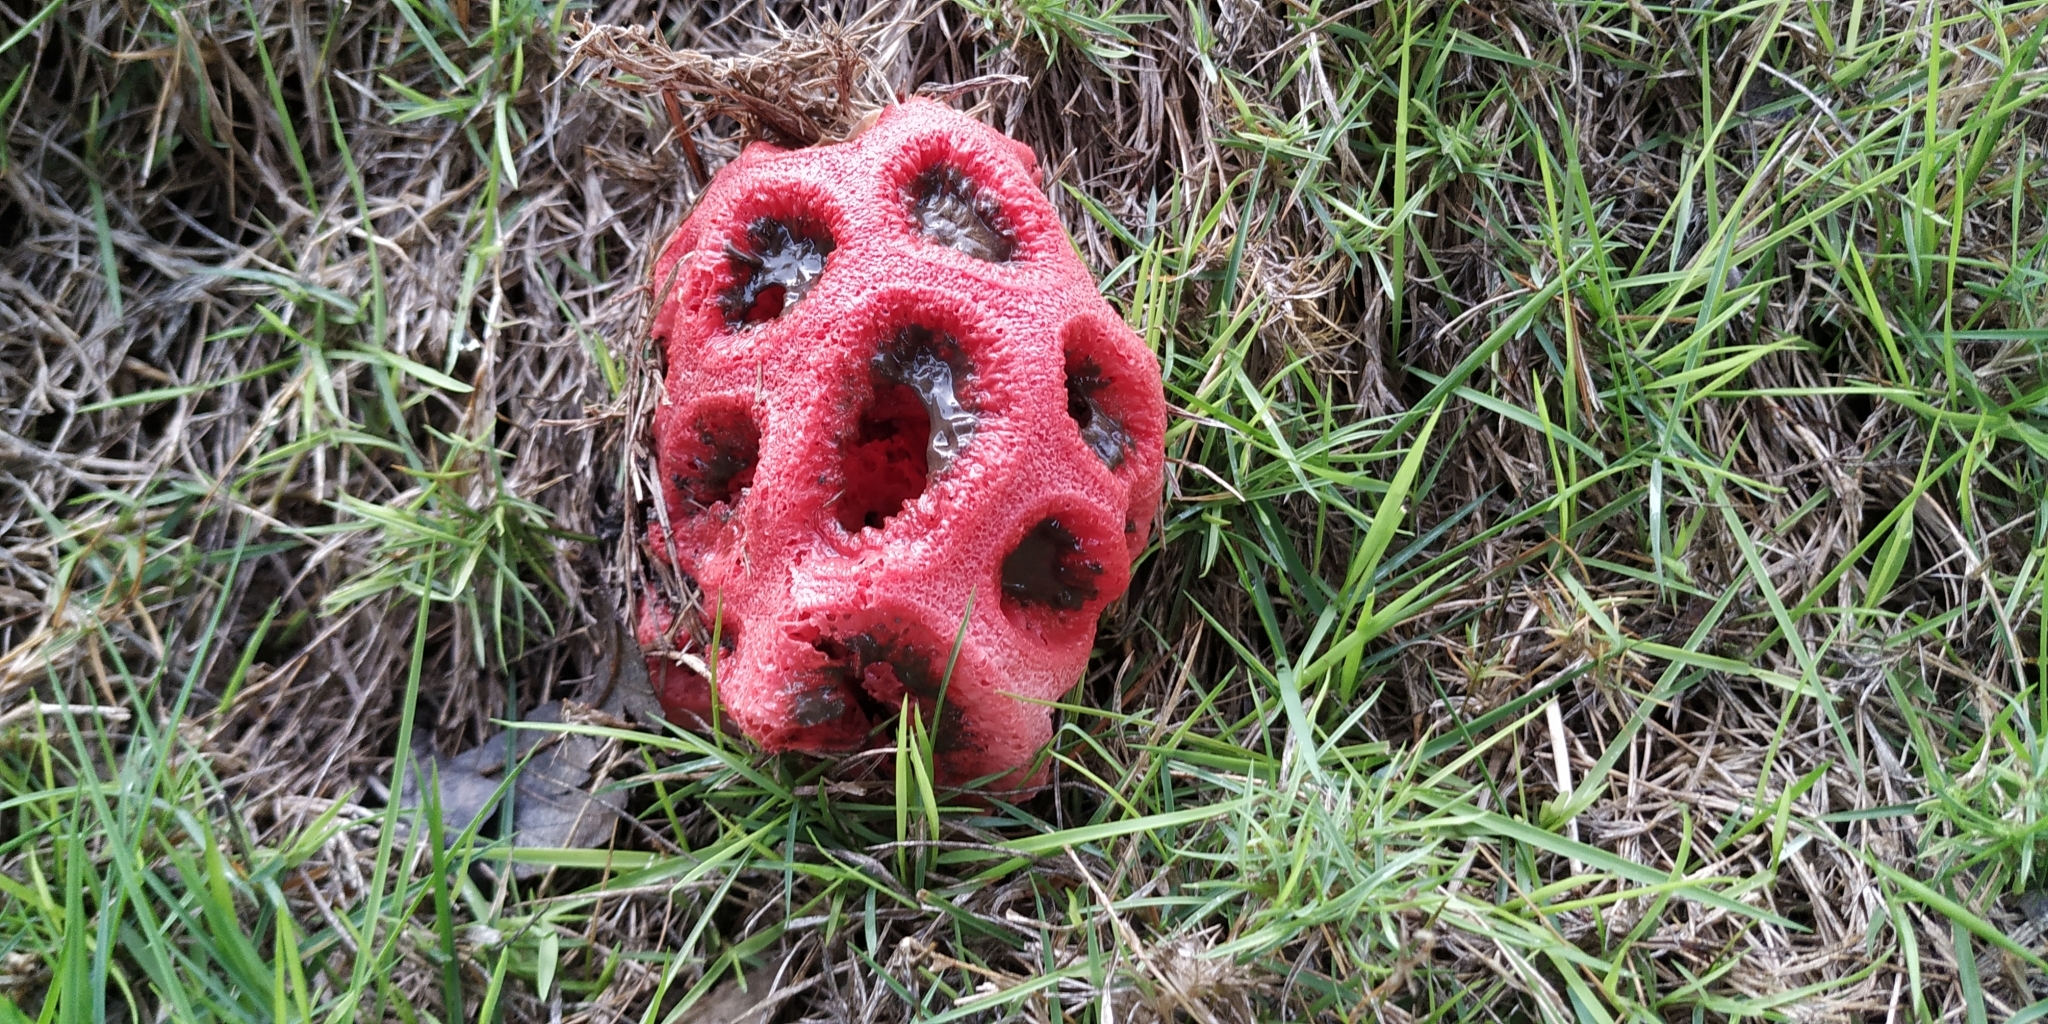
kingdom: Fungi
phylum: Basidiomycota
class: Agaricomycetes
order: Phallales
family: Phallaceae
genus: Clathrus
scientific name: Clathrus crispatus
